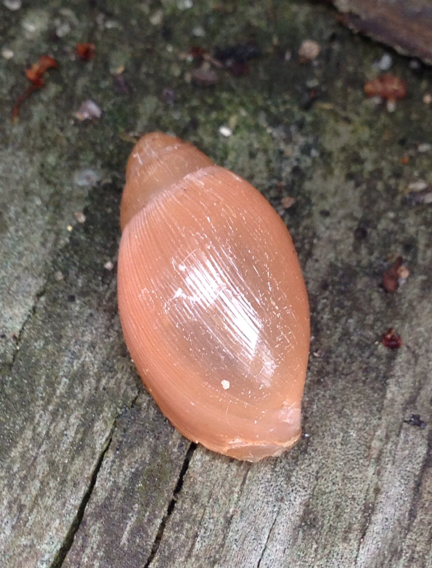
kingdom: Animalia
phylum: Mollusca
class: Gastropoda
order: Stylommatophora
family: Spiraxidae
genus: Euglandina
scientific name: Euglandina rosea
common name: Rosy wolfsnail
